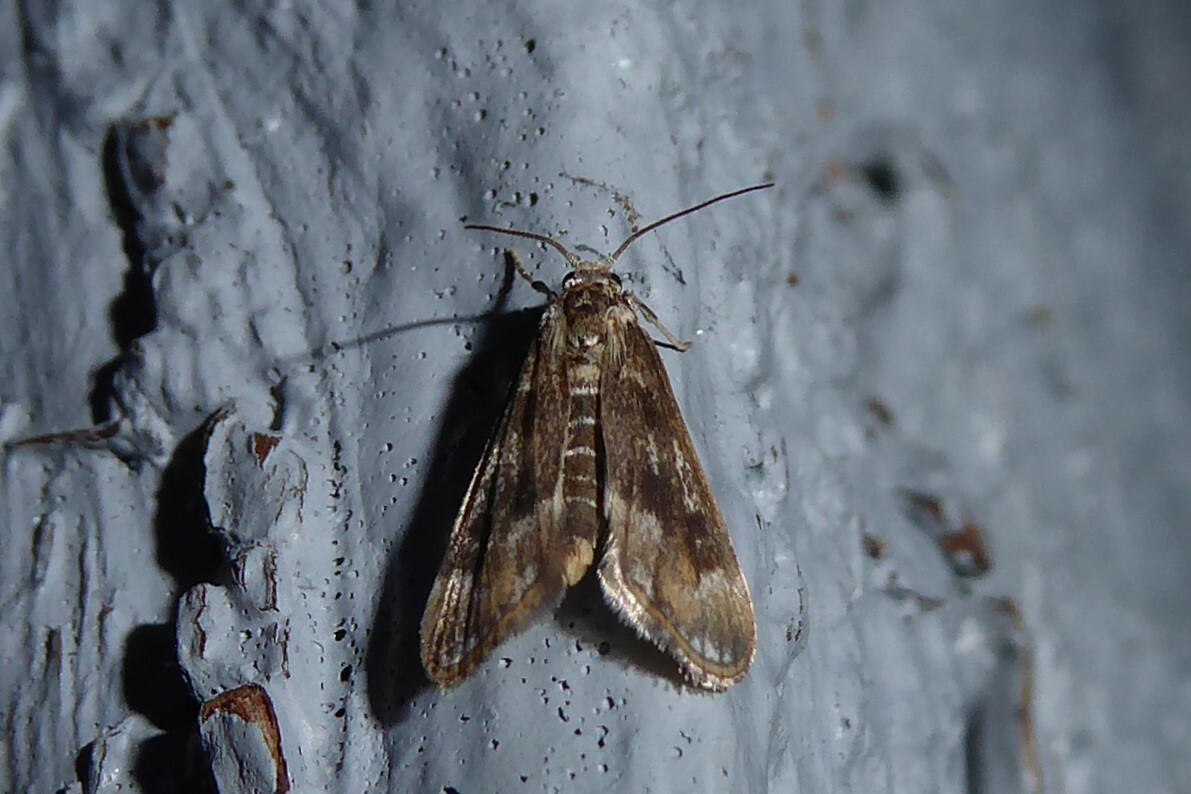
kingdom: Animalia
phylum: Arthropoda
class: Insecta
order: Lepidoptera
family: Crambidae
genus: Hygraula
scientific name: Hygraula nitens
